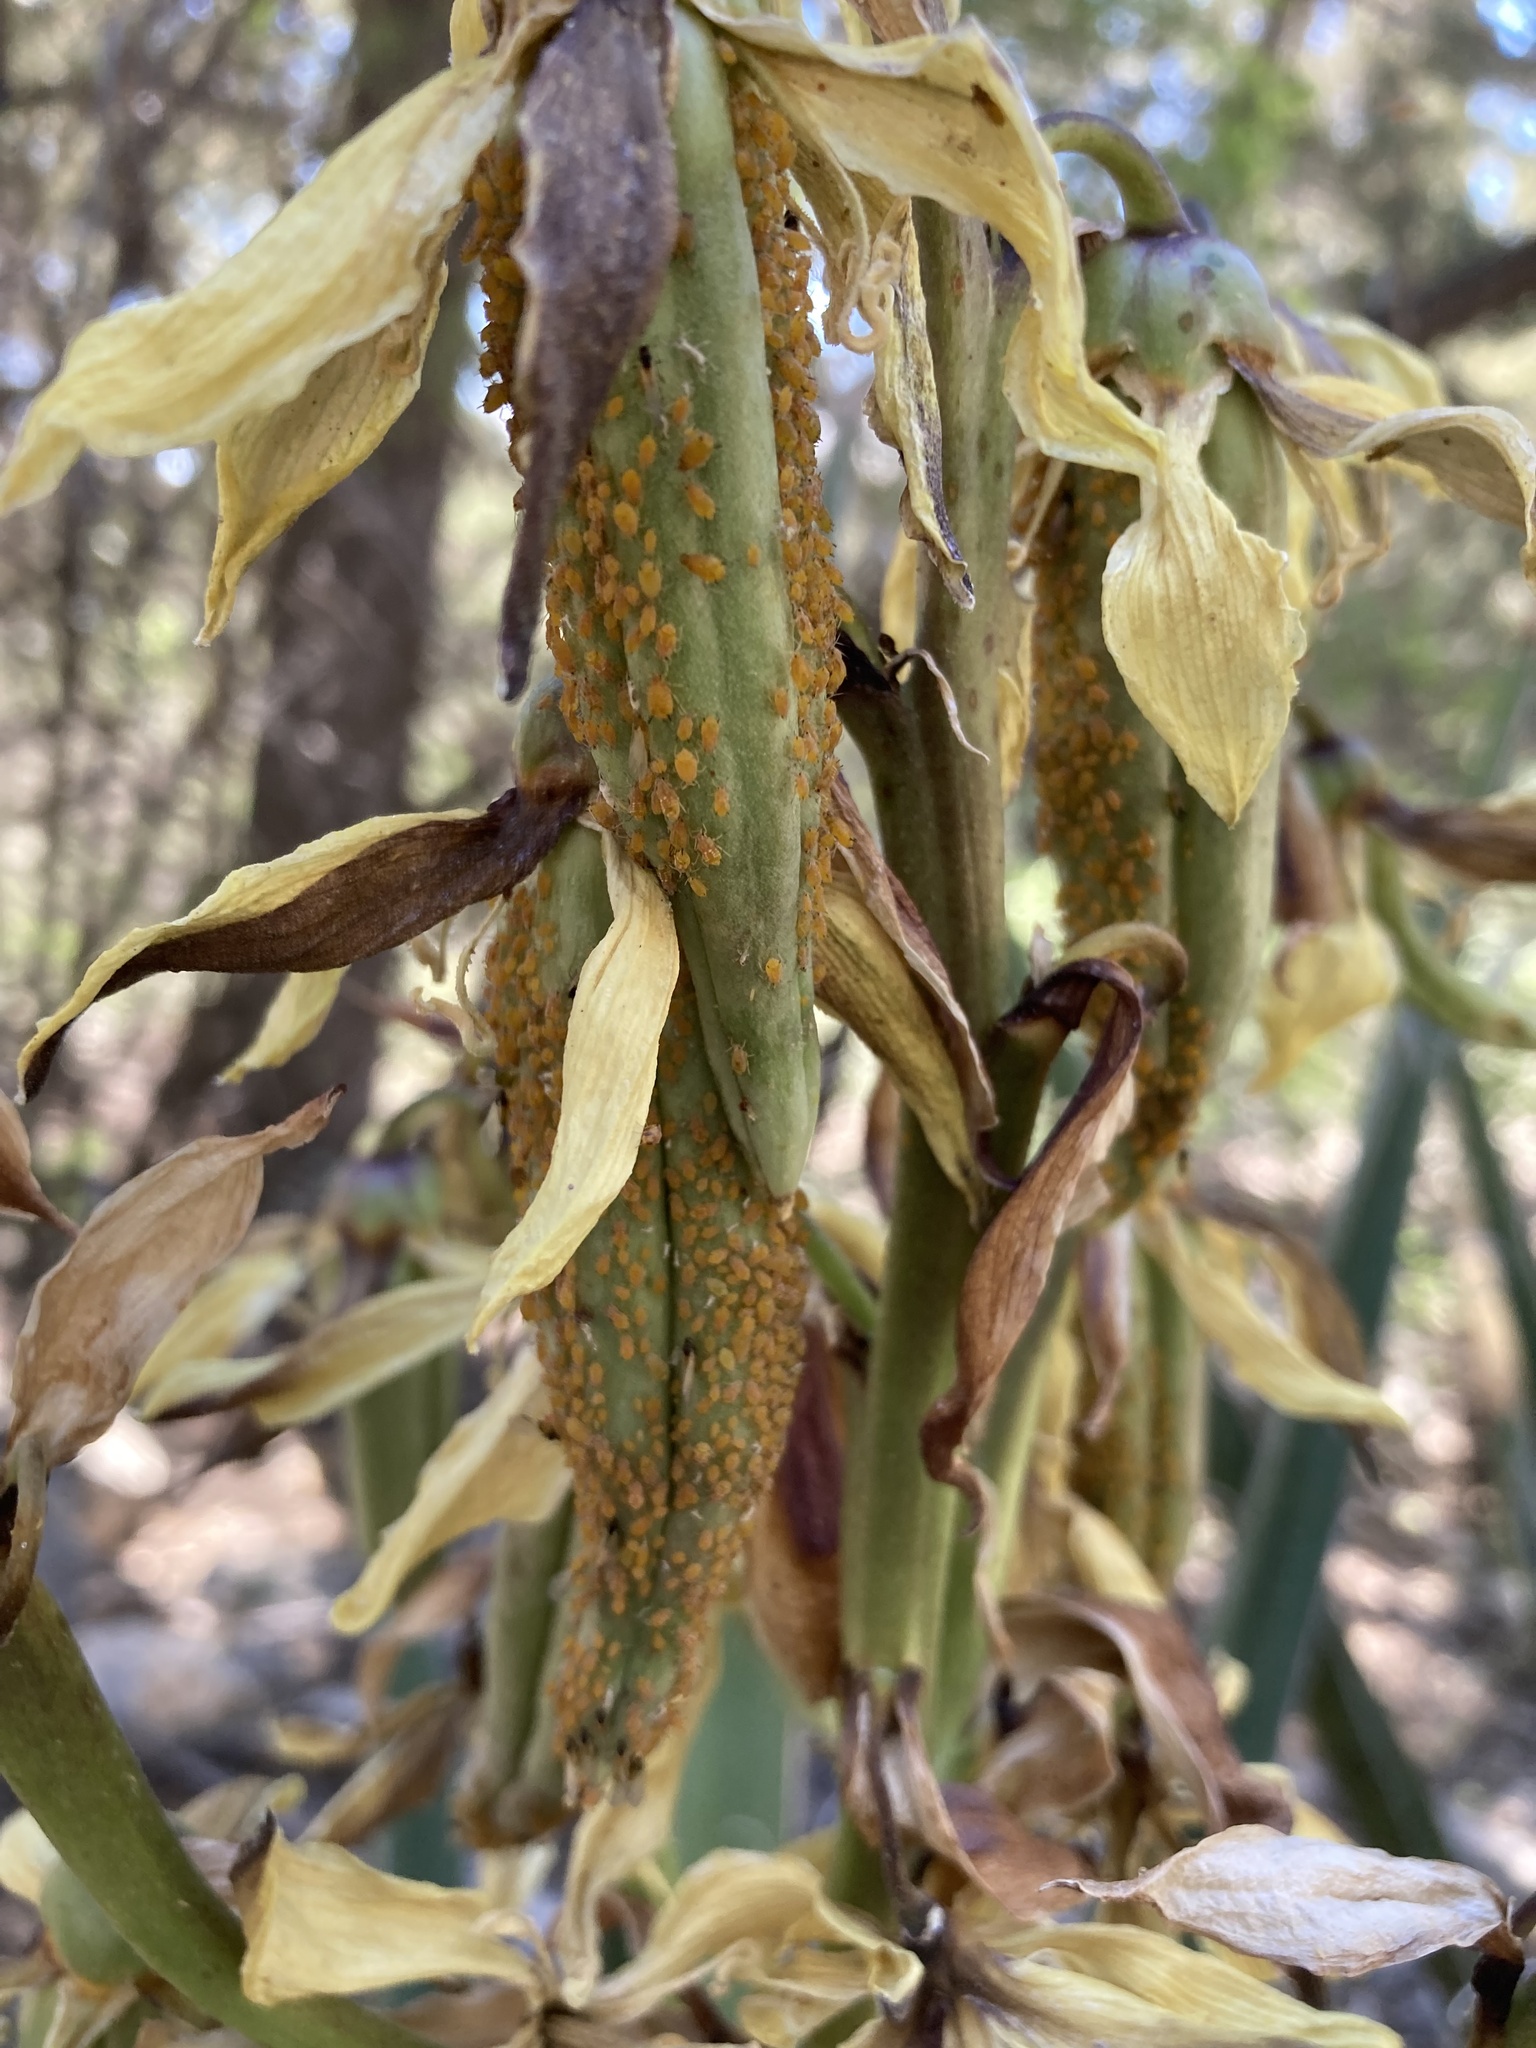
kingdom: Animalia
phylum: Arthropoda
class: Insecta
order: Hemiptera
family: Aphididae
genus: Aphis
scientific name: Aphis asclepiadis
